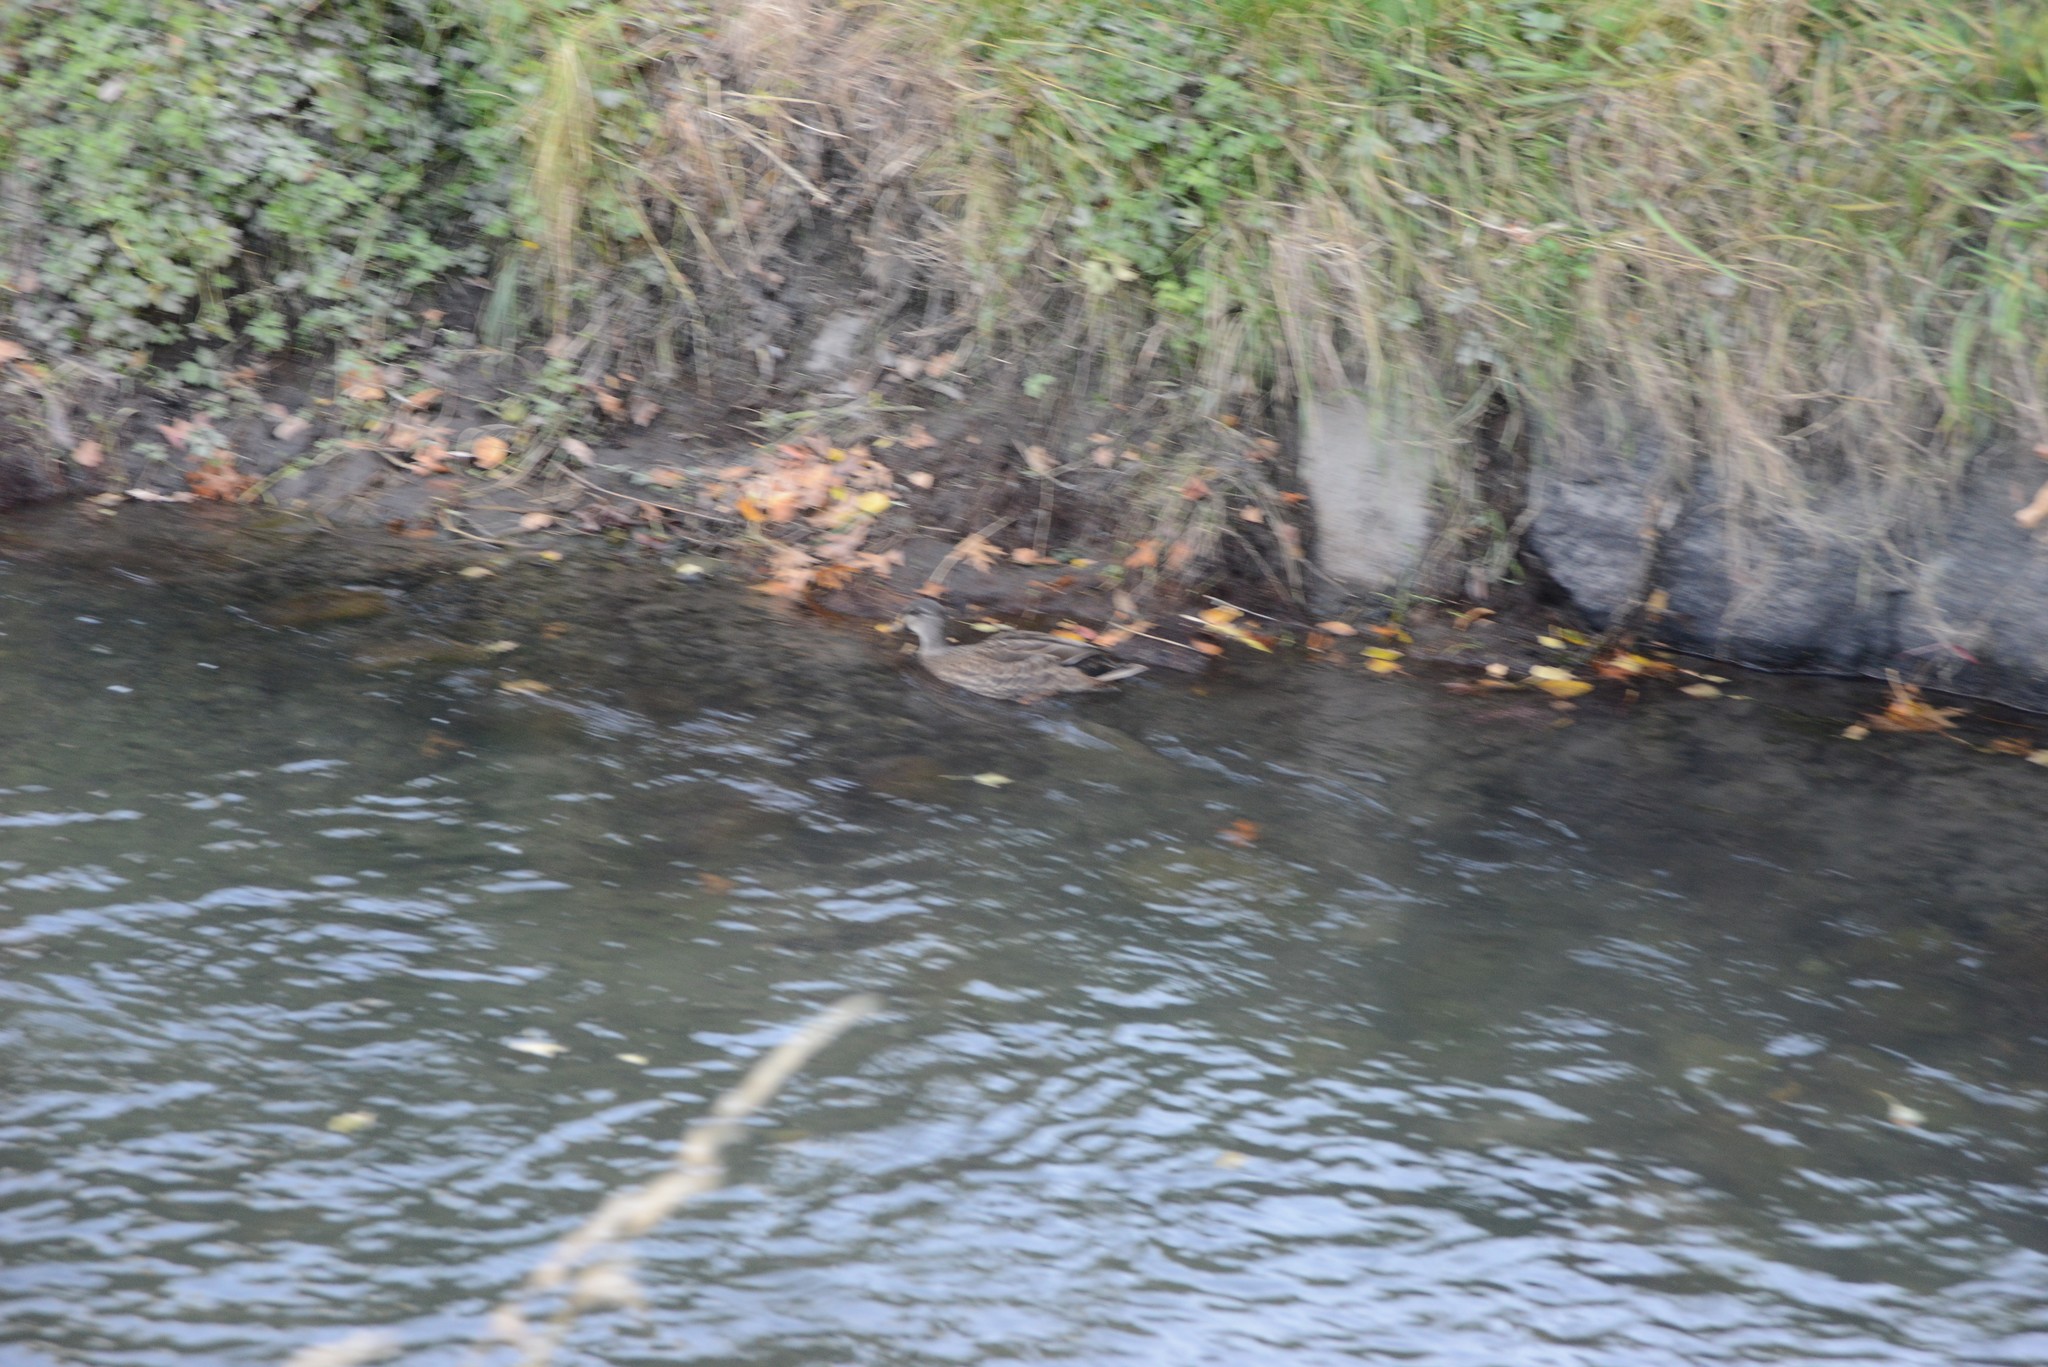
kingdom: Animalia
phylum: Chordata
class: Aves
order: Anseriformes
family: Anatidae
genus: Anas
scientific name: Anas platyrhynchos
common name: Mallard
